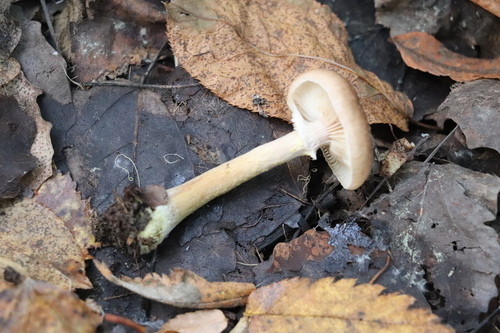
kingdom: Fungi
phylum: Basidiomycota
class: Agaricomycetes
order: Agaricales
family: Physalacriaceae
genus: Armillaria
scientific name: Armillaria cepistipes
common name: Mullet honey fungus
